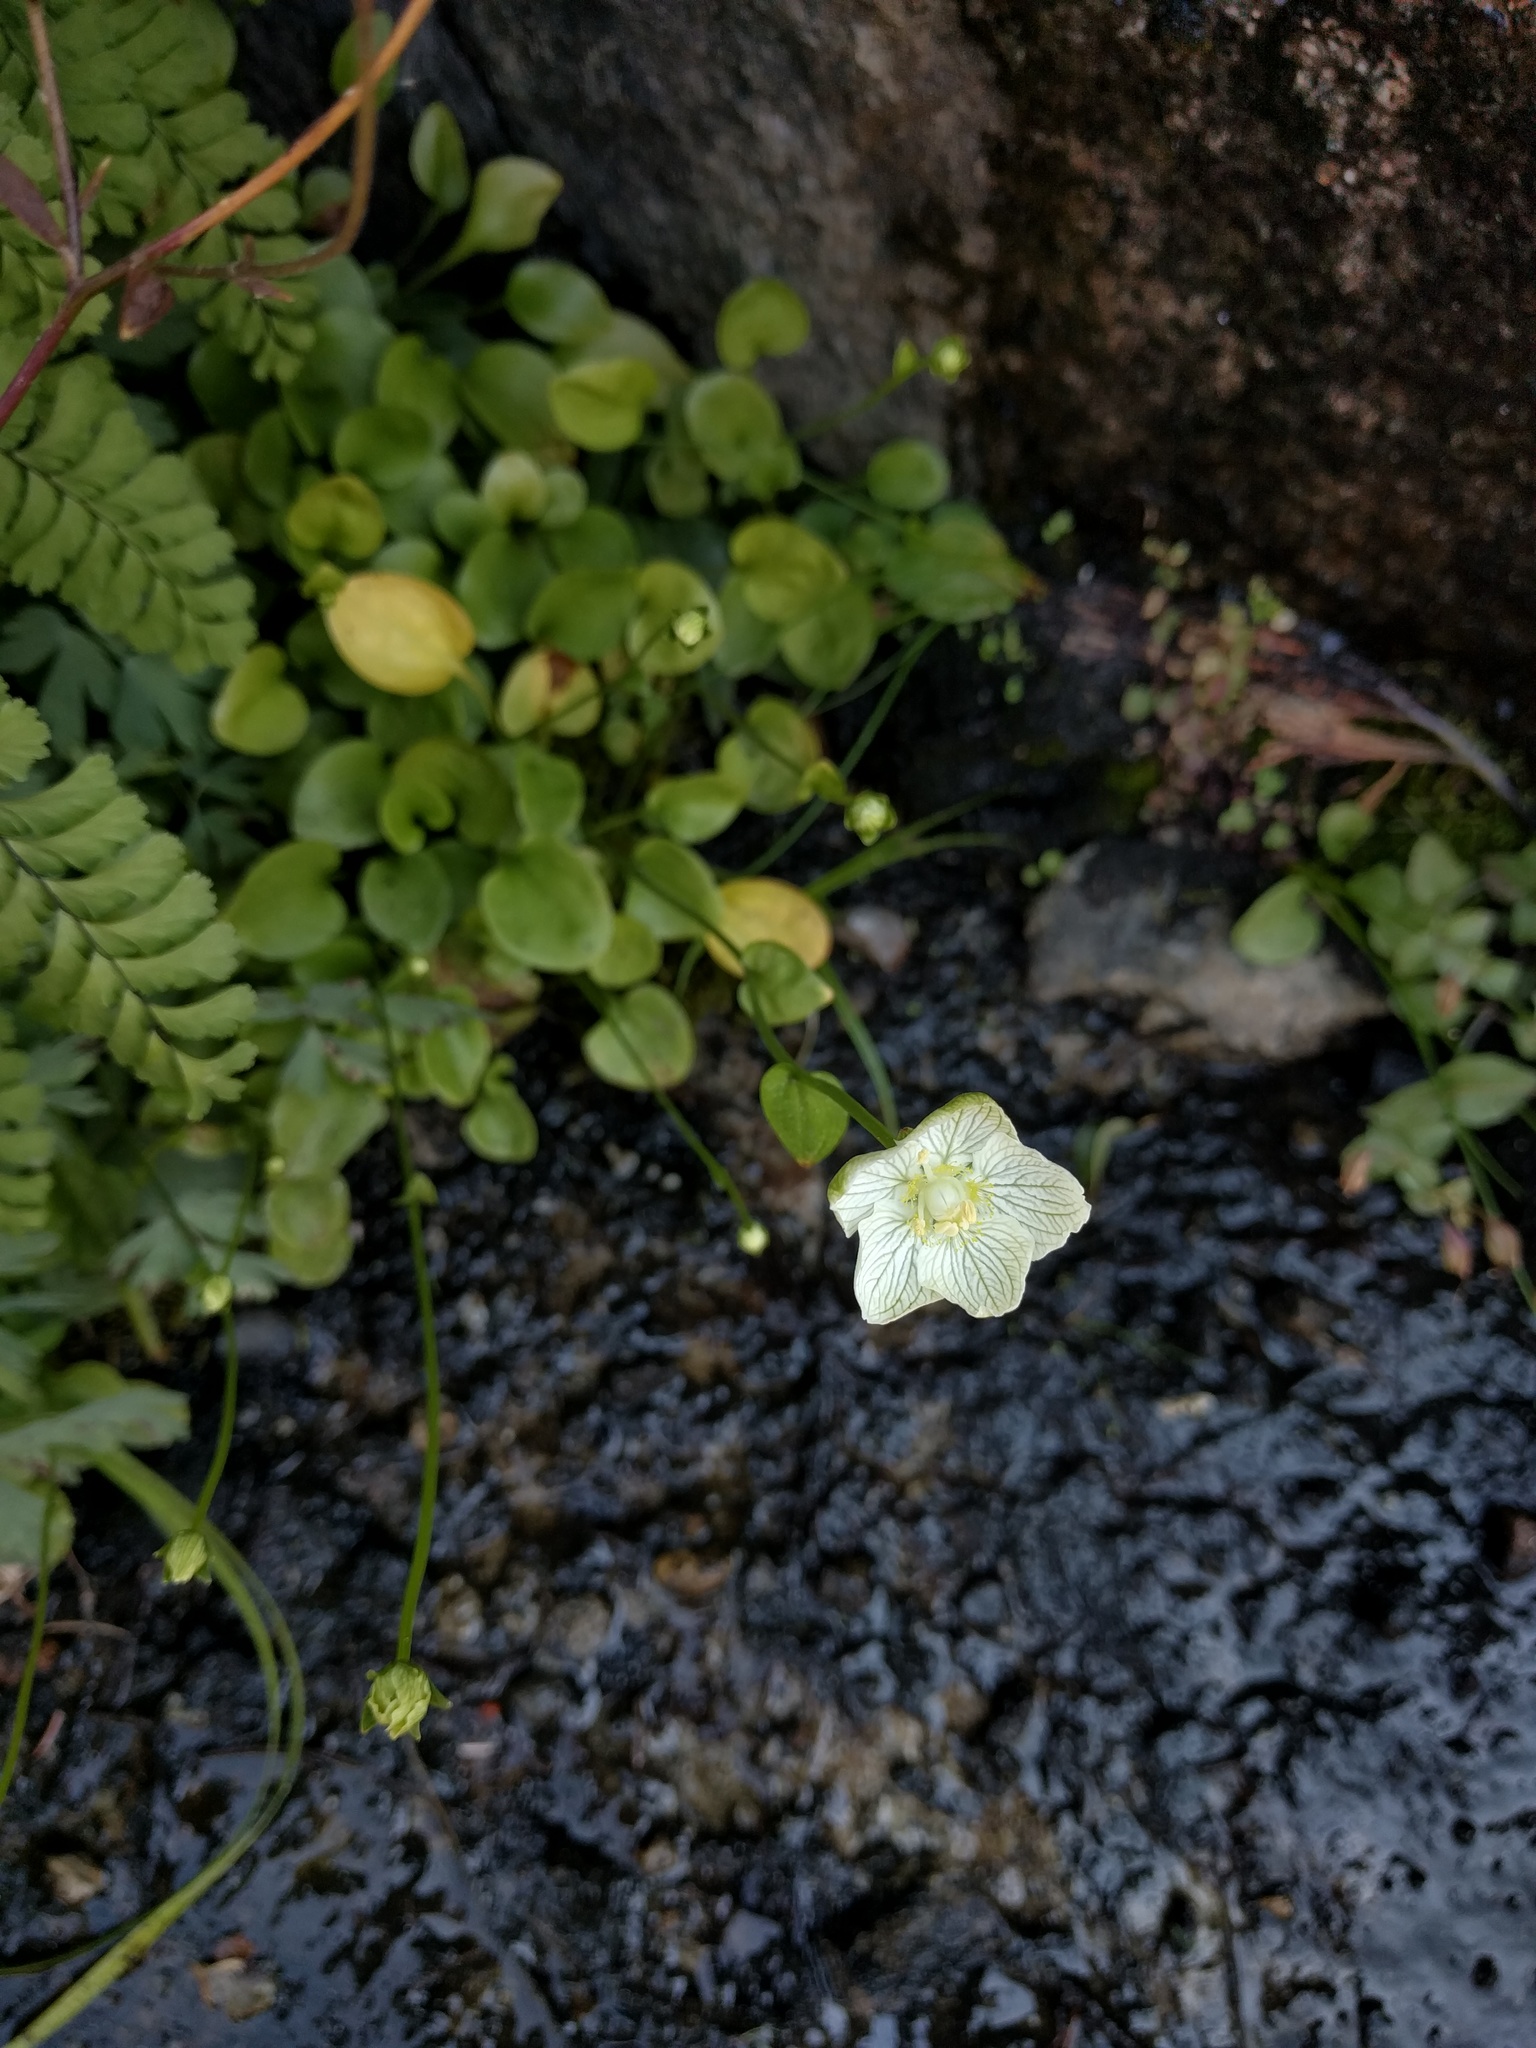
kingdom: Plantae
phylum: Tracheophyta
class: Magnoliopsida
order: Celastrales
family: Parnassiaceae
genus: Parnassia
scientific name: Parnassia palustris
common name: Grass-of-parnassus
